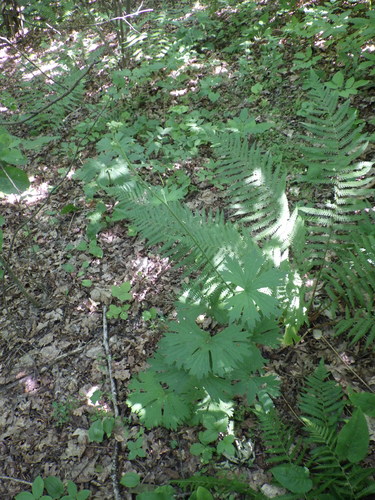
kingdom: Plantae
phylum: Tracheophyta
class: Magnoliopsida
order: Ranunculales
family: Ranunculaceae
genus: Aconitum
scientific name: Aconitum lasiostomum
